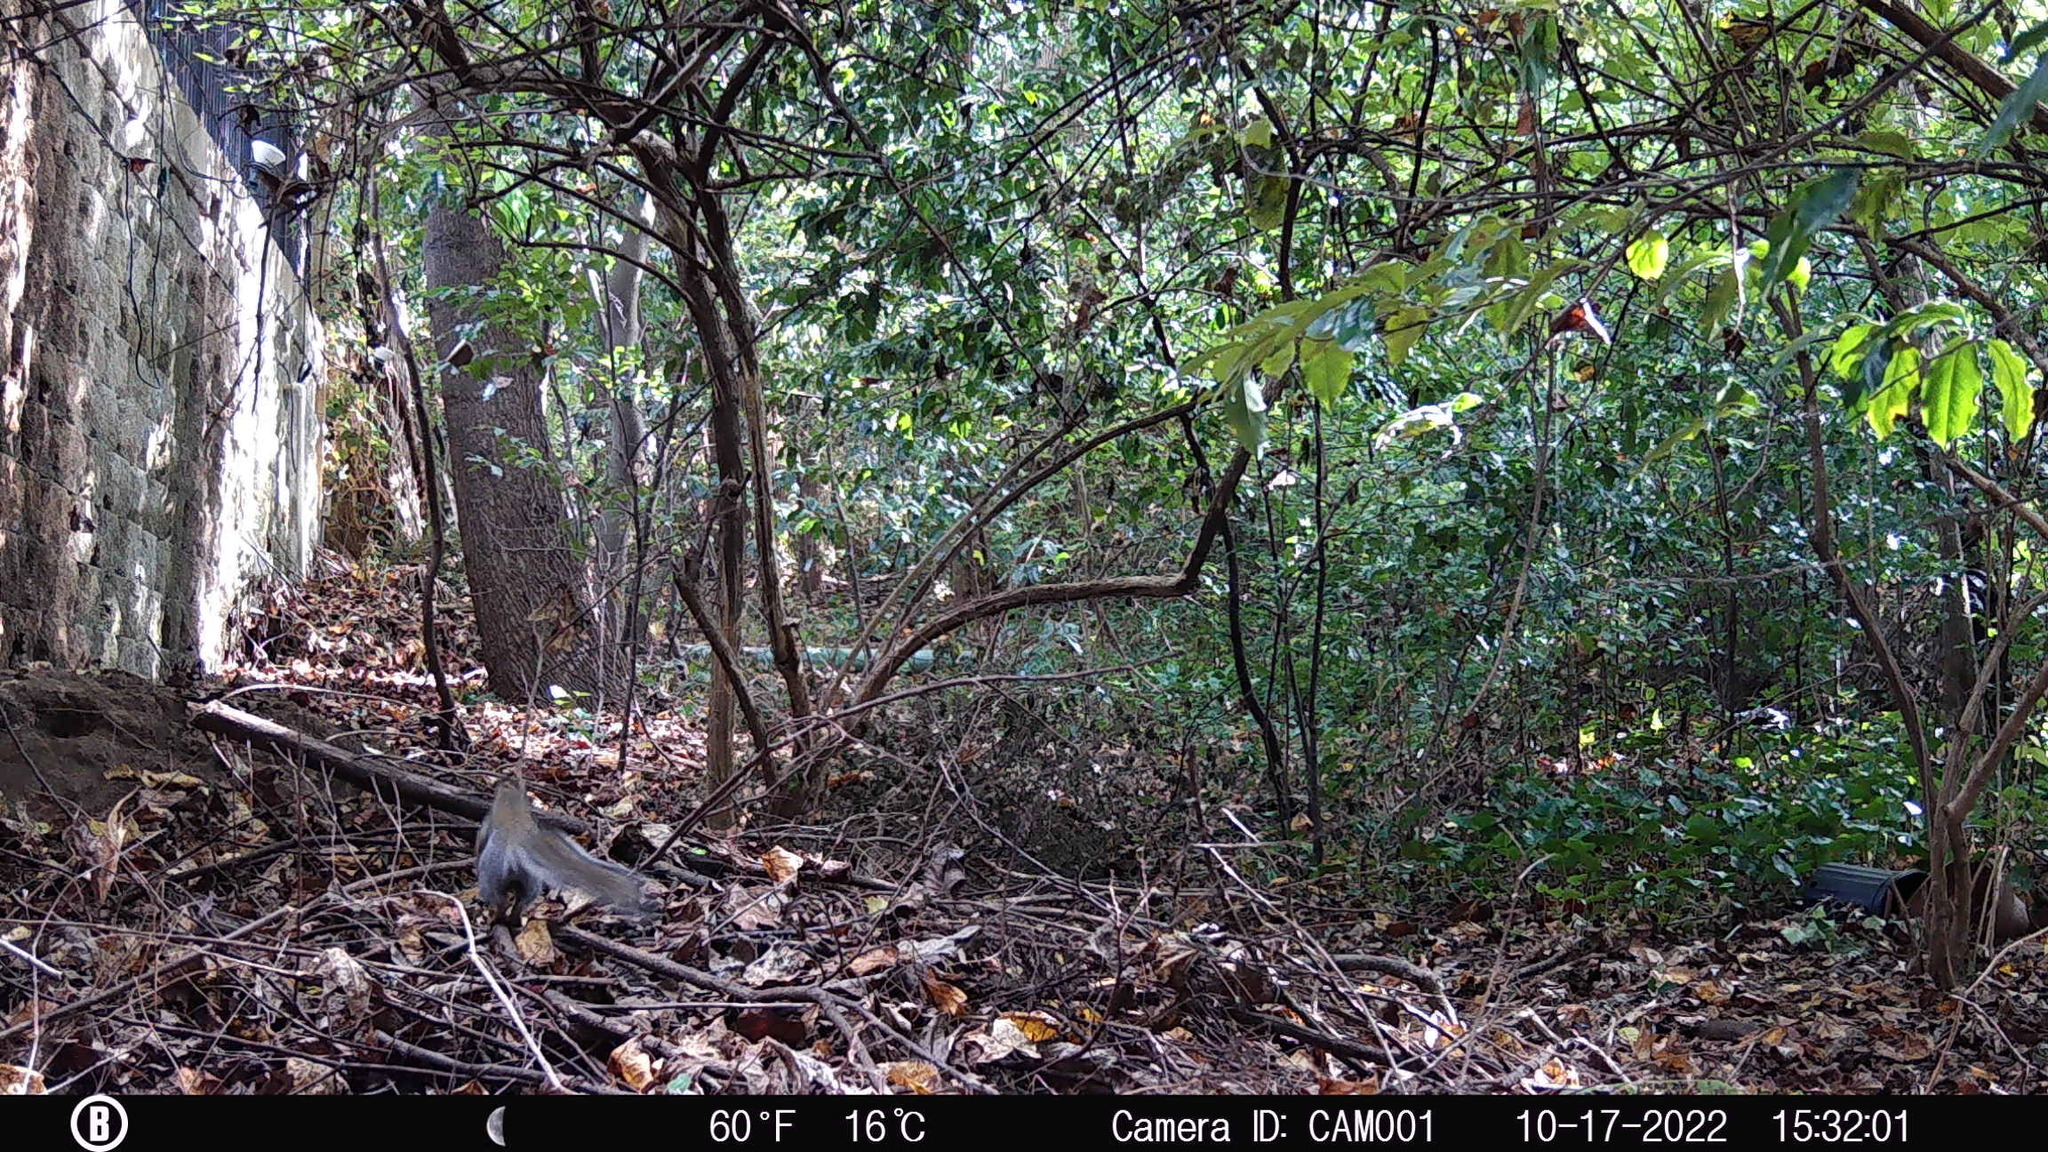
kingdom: Animalia
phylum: Chordata
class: Mammalia
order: Rodentia
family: Sciuridae
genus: Sciurus
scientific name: Sciurus carolinensis
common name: Eastern gray squirrel
